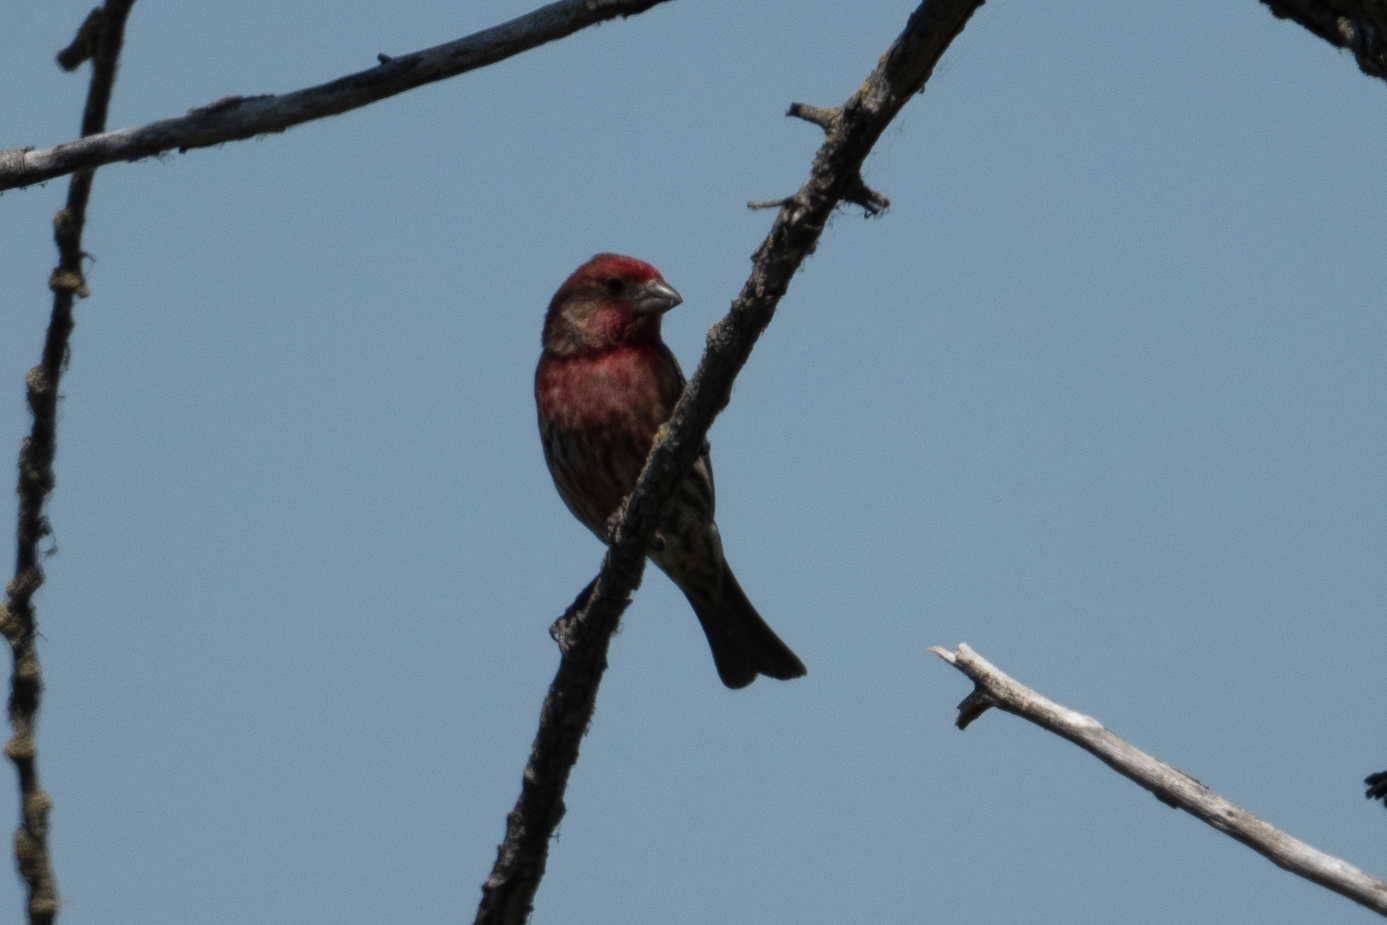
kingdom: Animalia
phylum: Chordata
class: Aves
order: Passeriformes
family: Fringillidae
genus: Haemorhous
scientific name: Haemorhous mexicanus
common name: House finch
